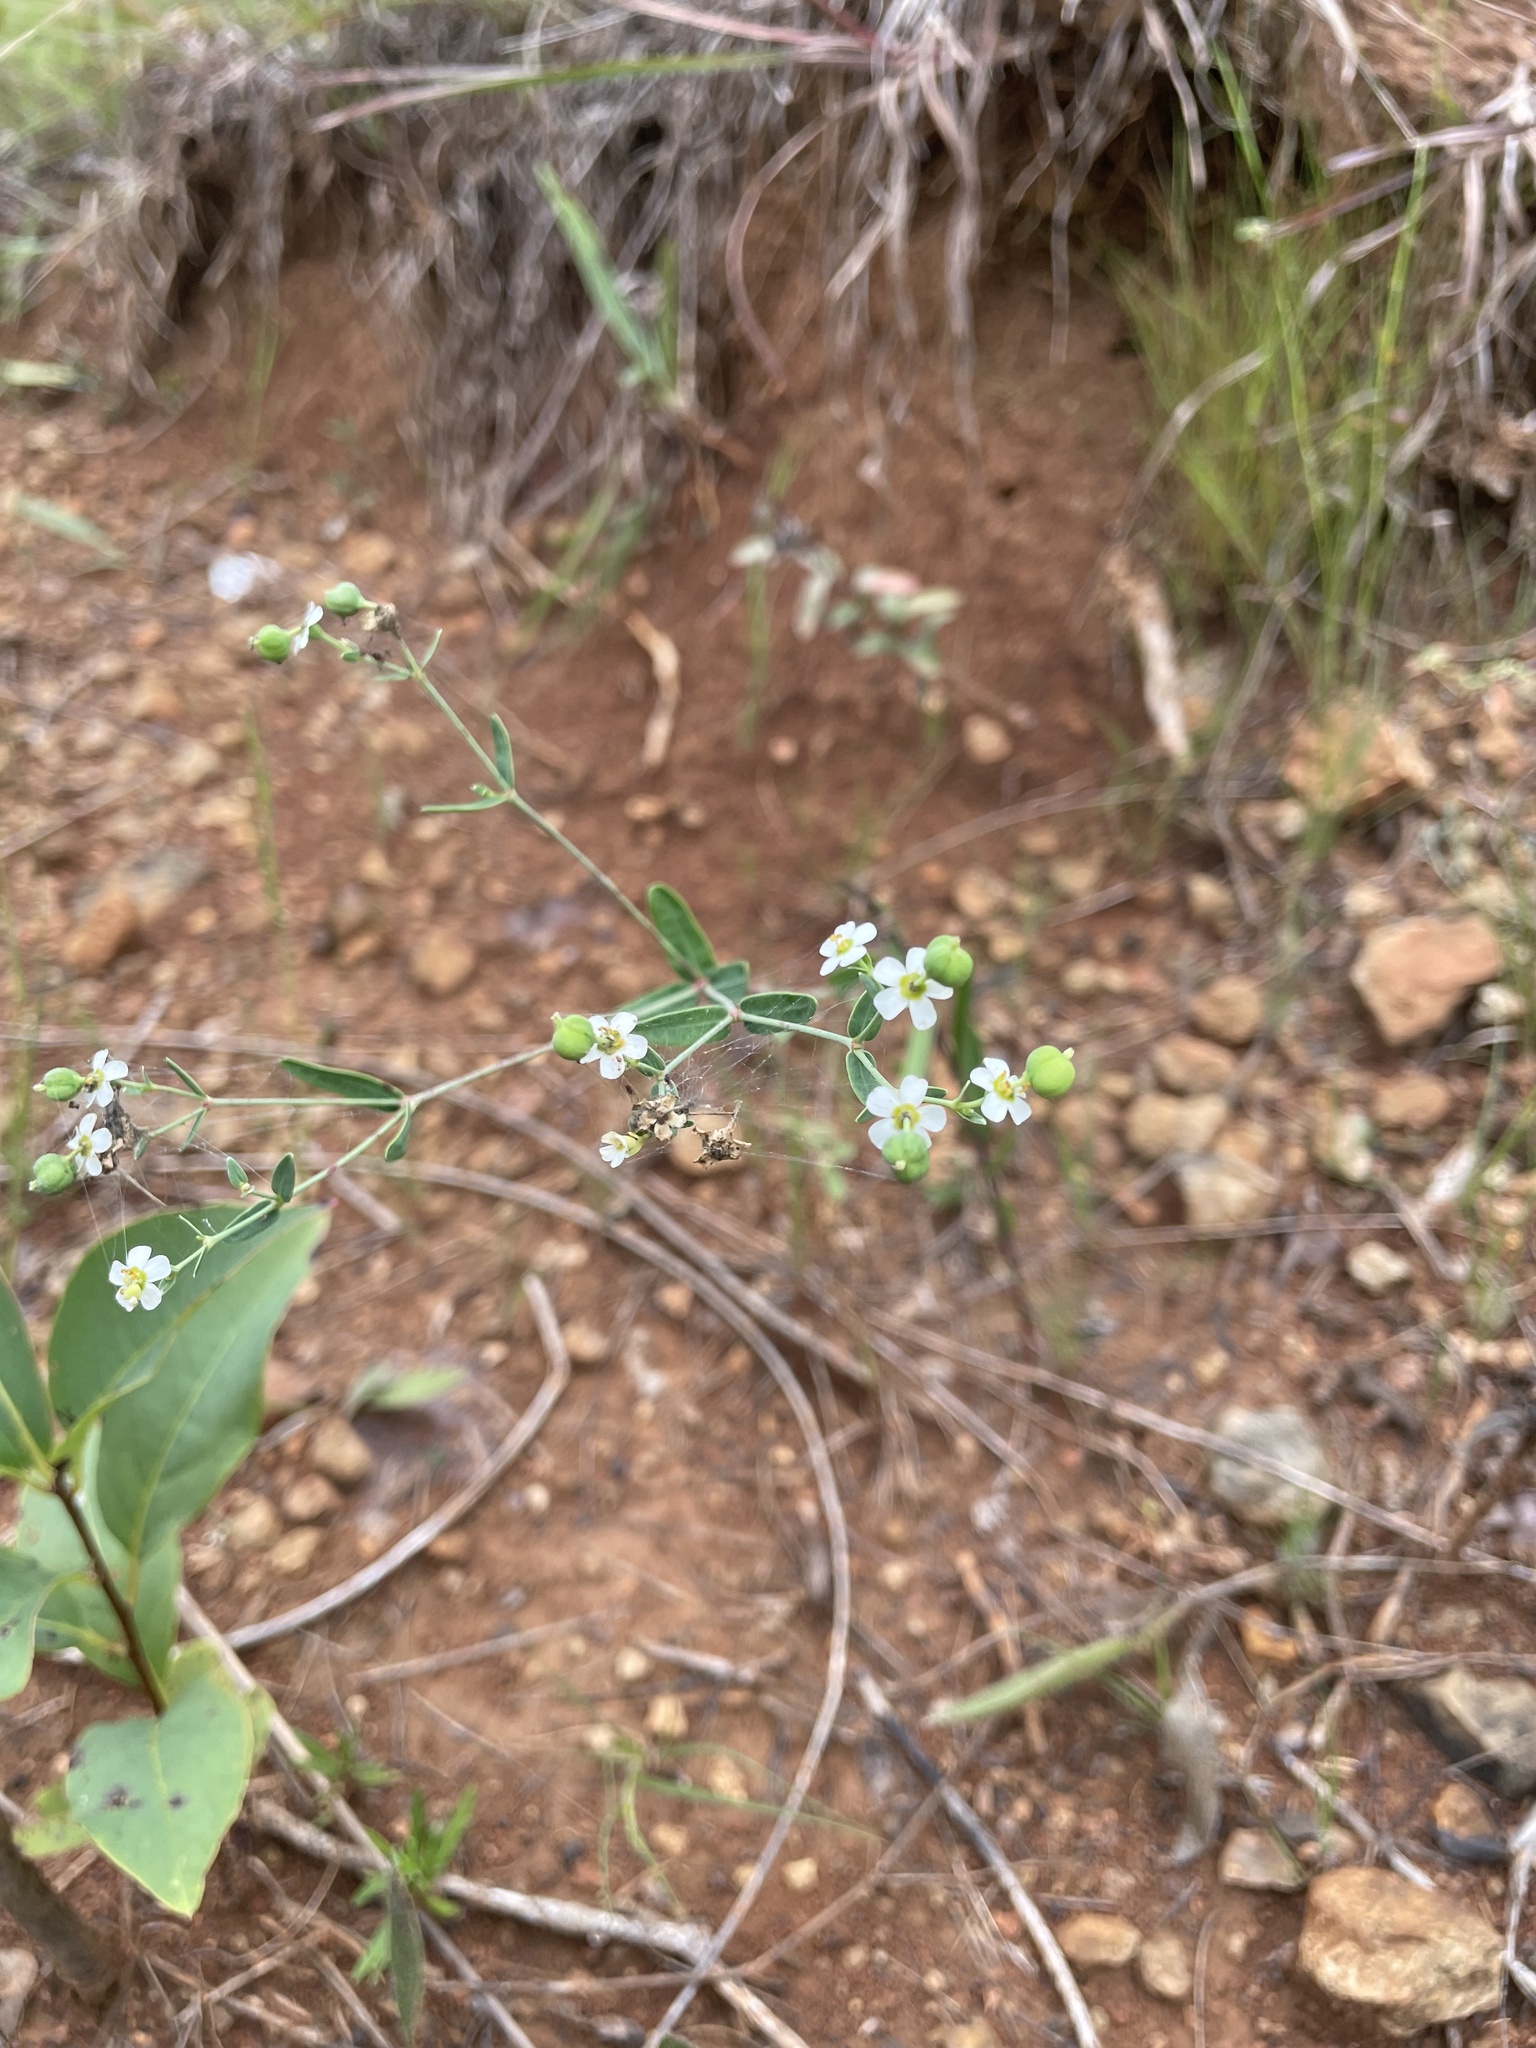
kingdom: Plantae
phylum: Tracheophyta
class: Magnoliopsida
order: Malpighiales
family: Euphorbiaceae
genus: Euphorbia
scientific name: Euphorbia corollata
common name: Flowering spurge
